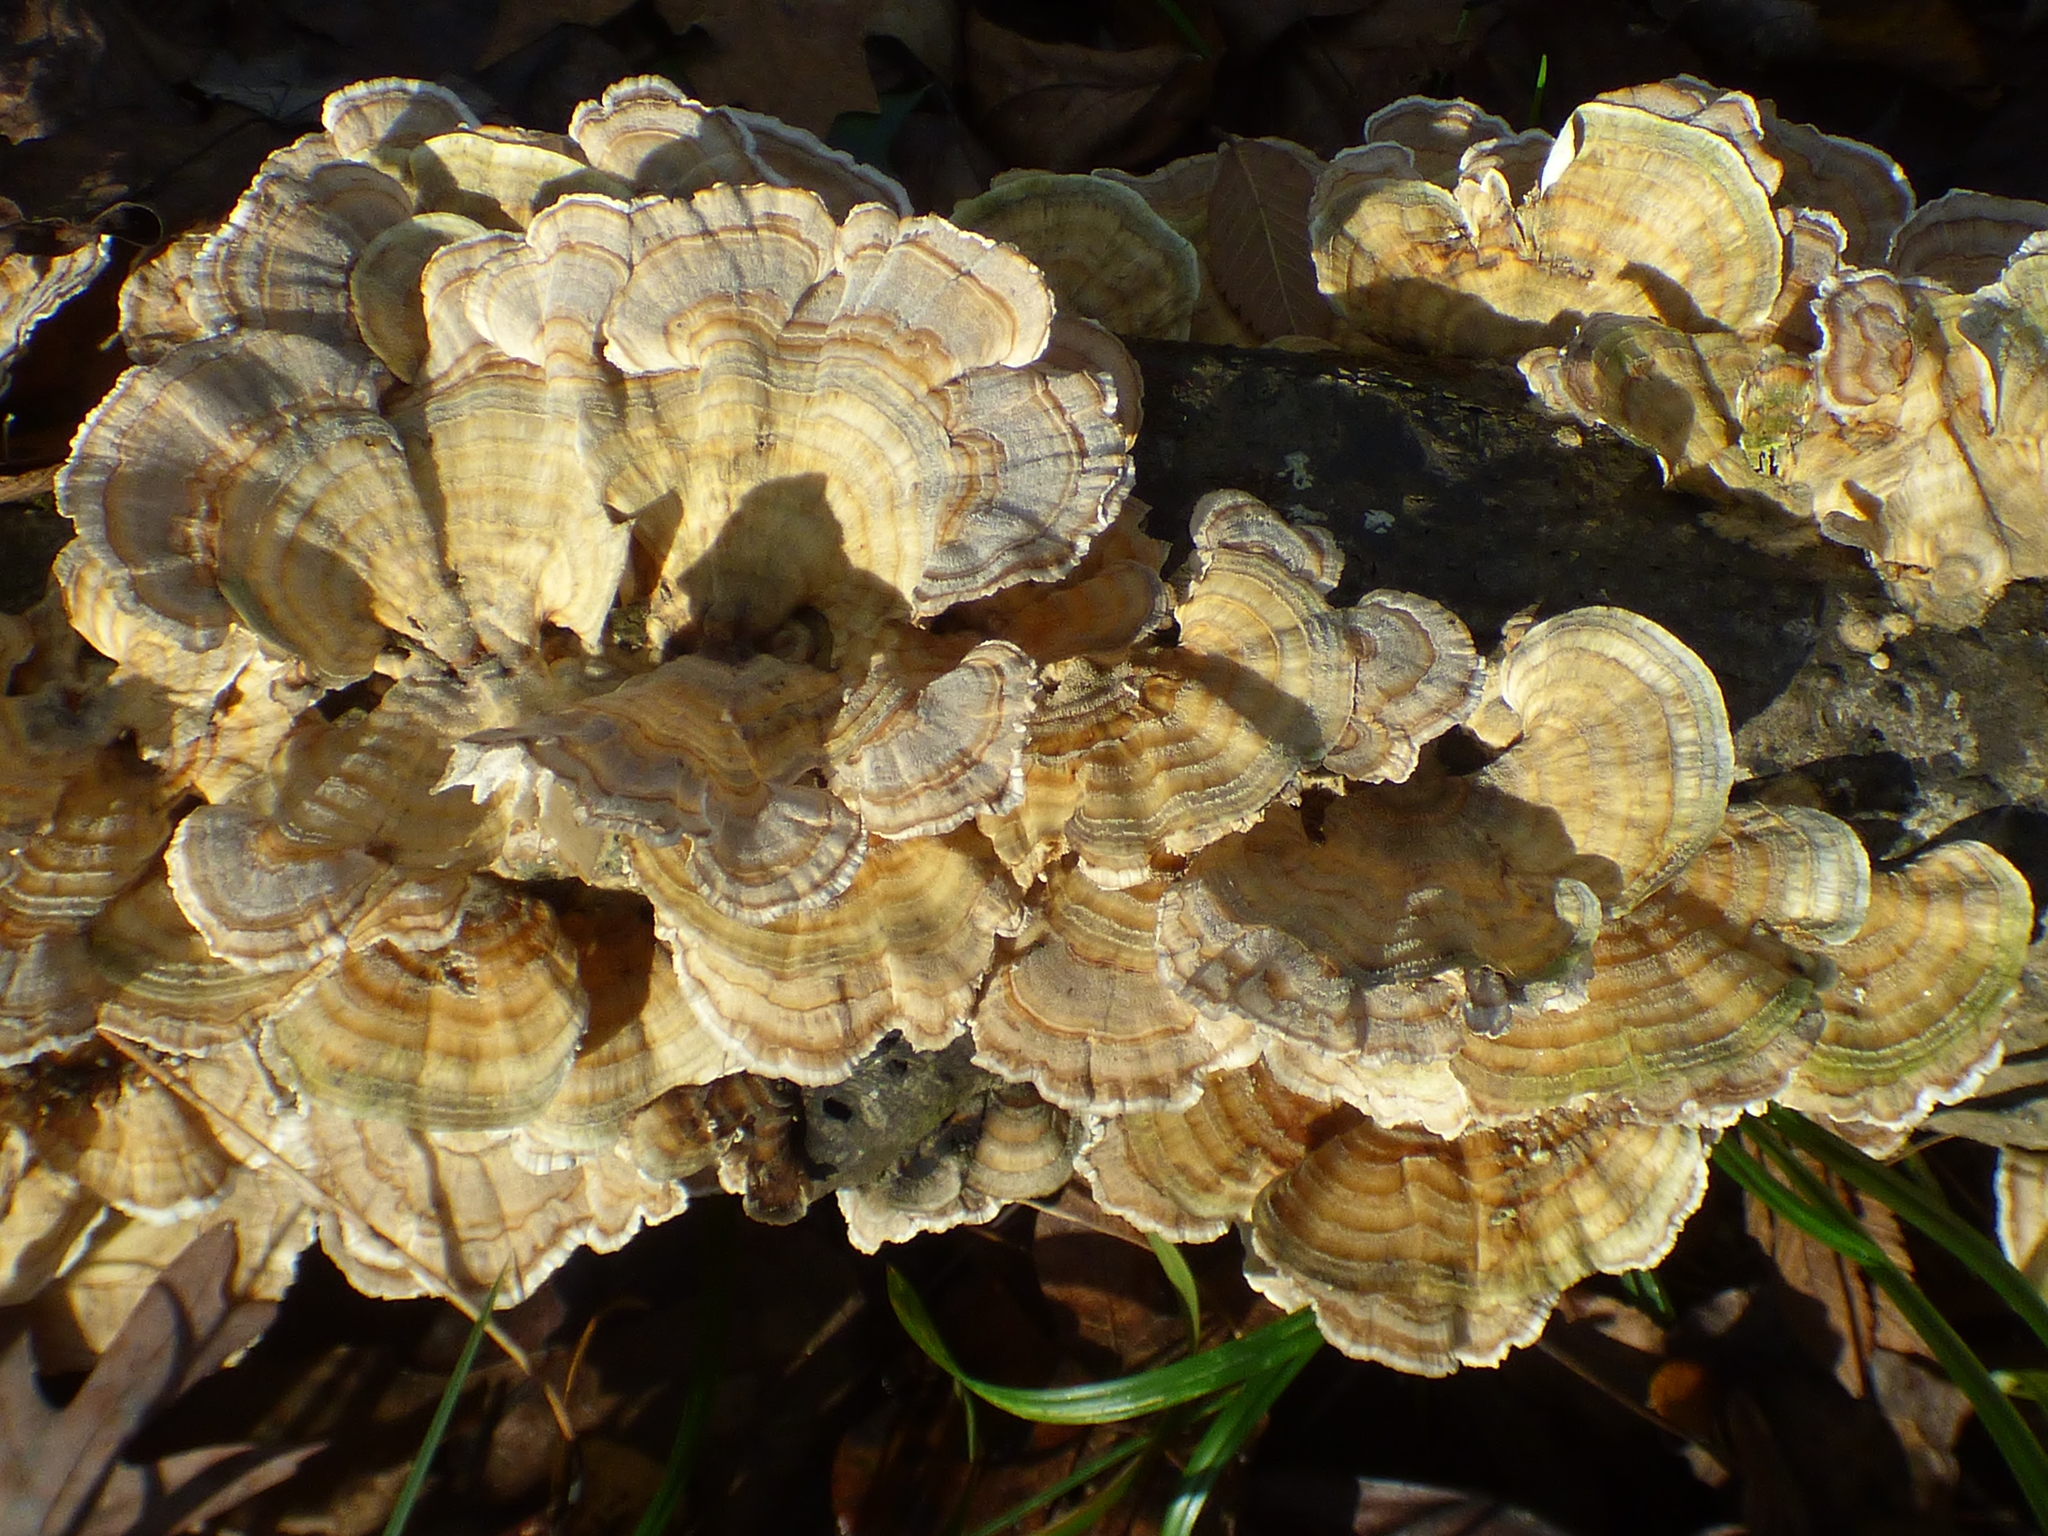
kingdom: Fungi
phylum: Basidiomycota
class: Agaricomycetes
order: Polyporales
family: Polyporaceae
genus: Trametes
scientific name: Trametes versicolor
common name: Turkeytail
